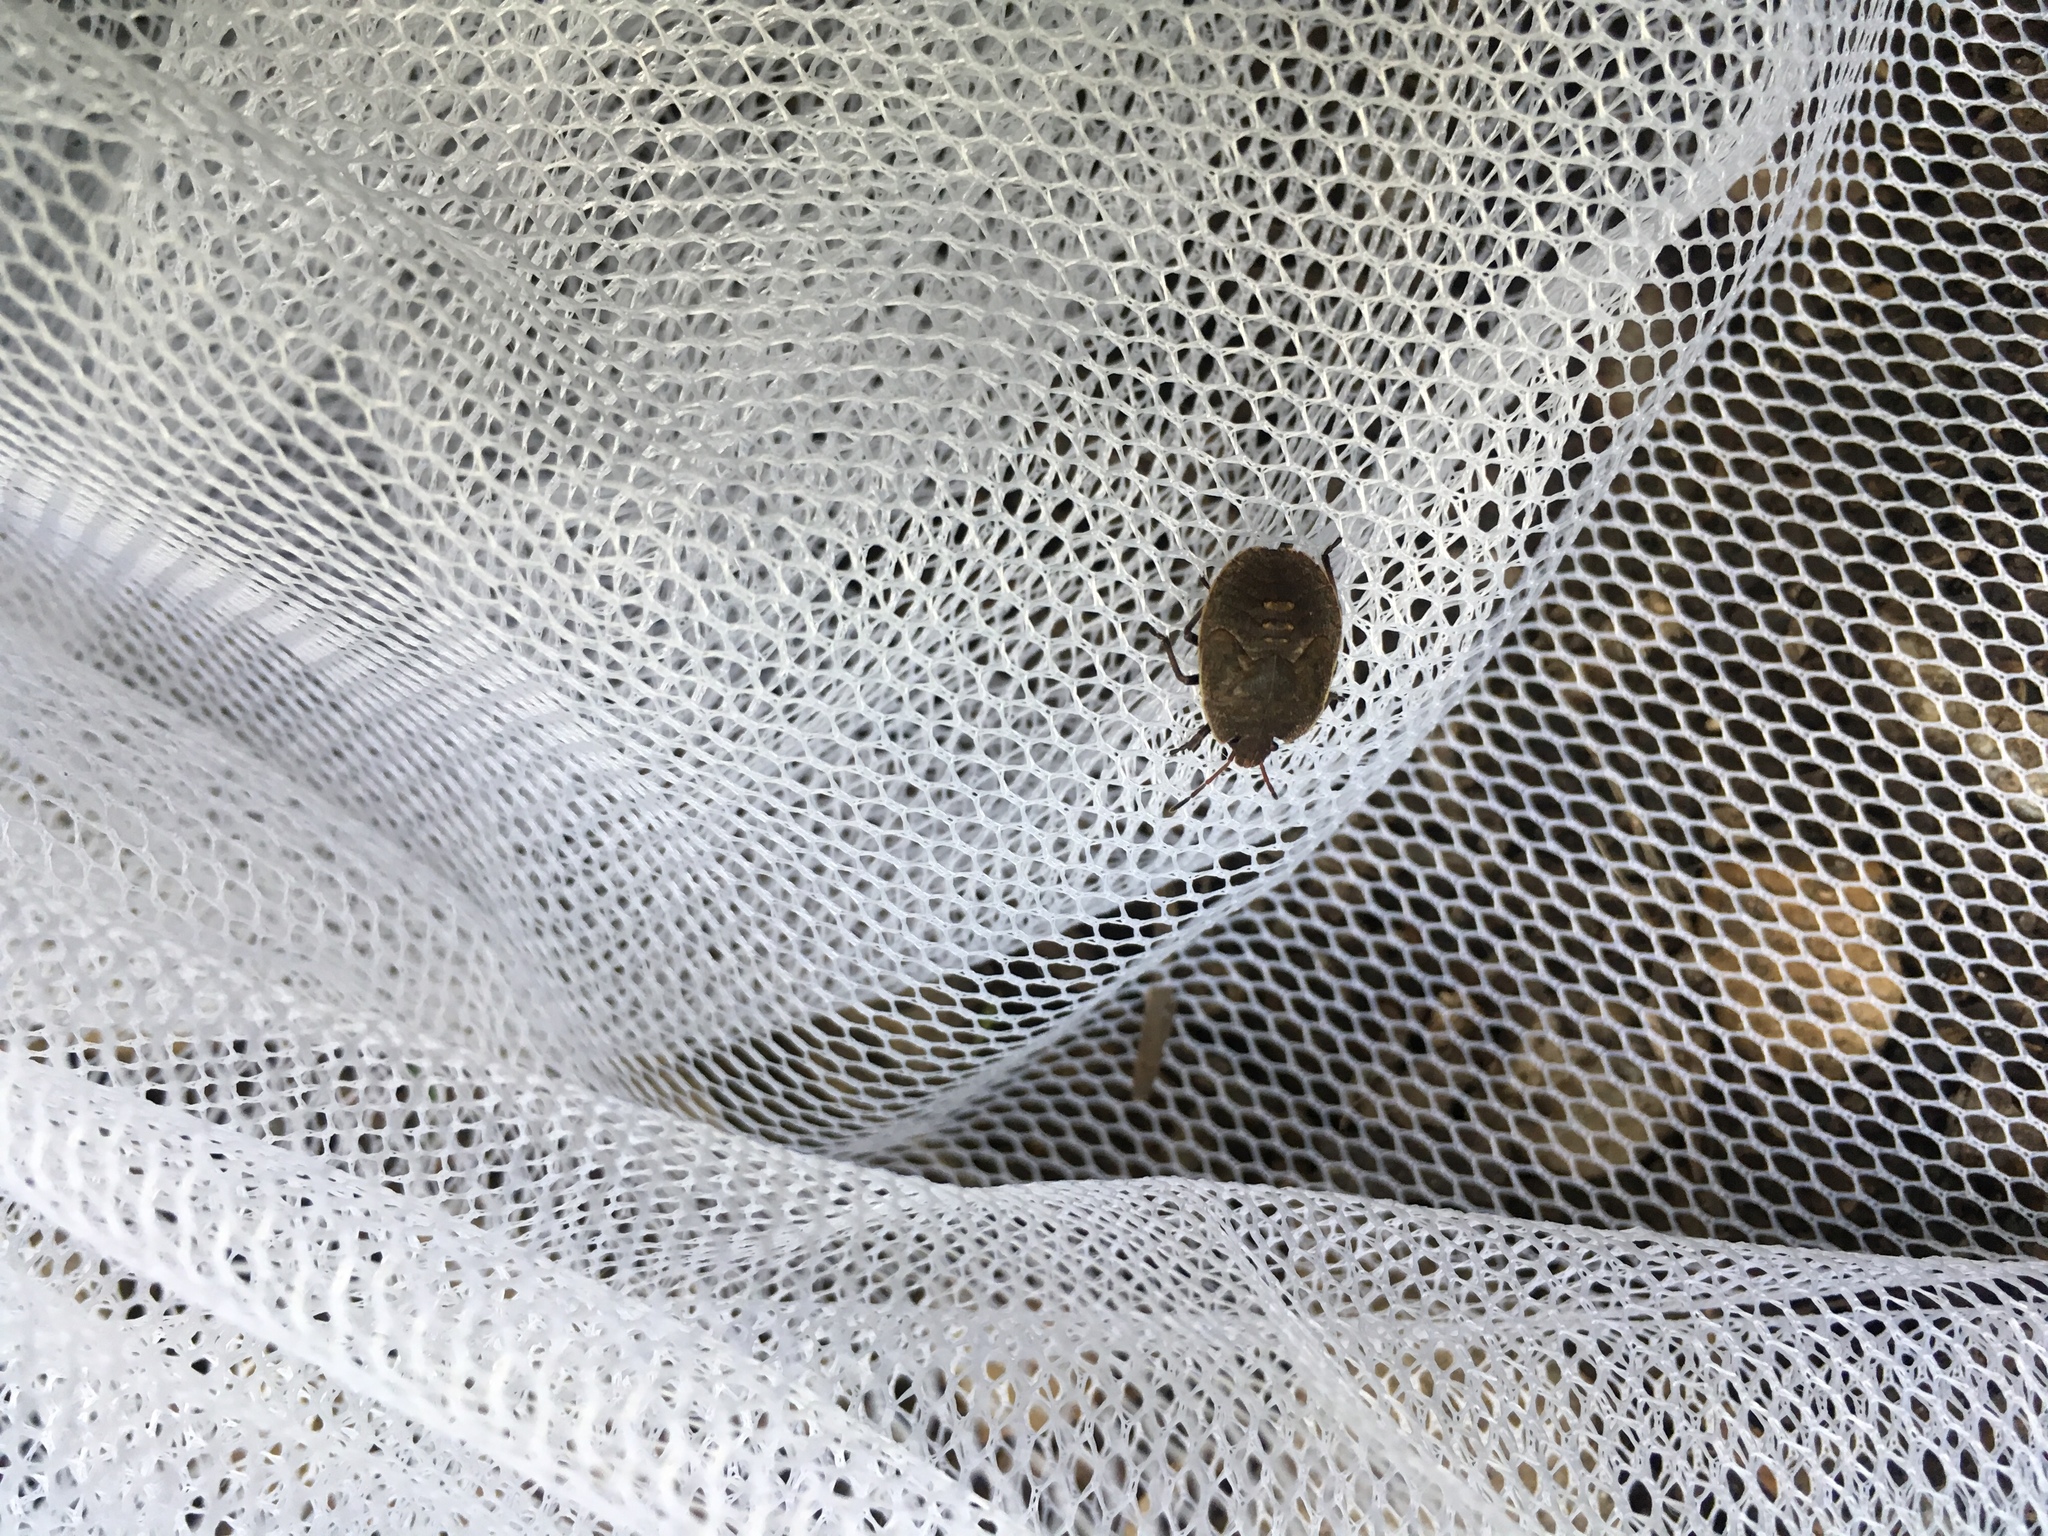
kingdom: Animalia
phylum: Arthropoda
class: Insecta
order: Hemiptera
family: Pentatomidae
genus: Menecles
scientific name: Menecles insertus
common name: Elf shoe stink bug
